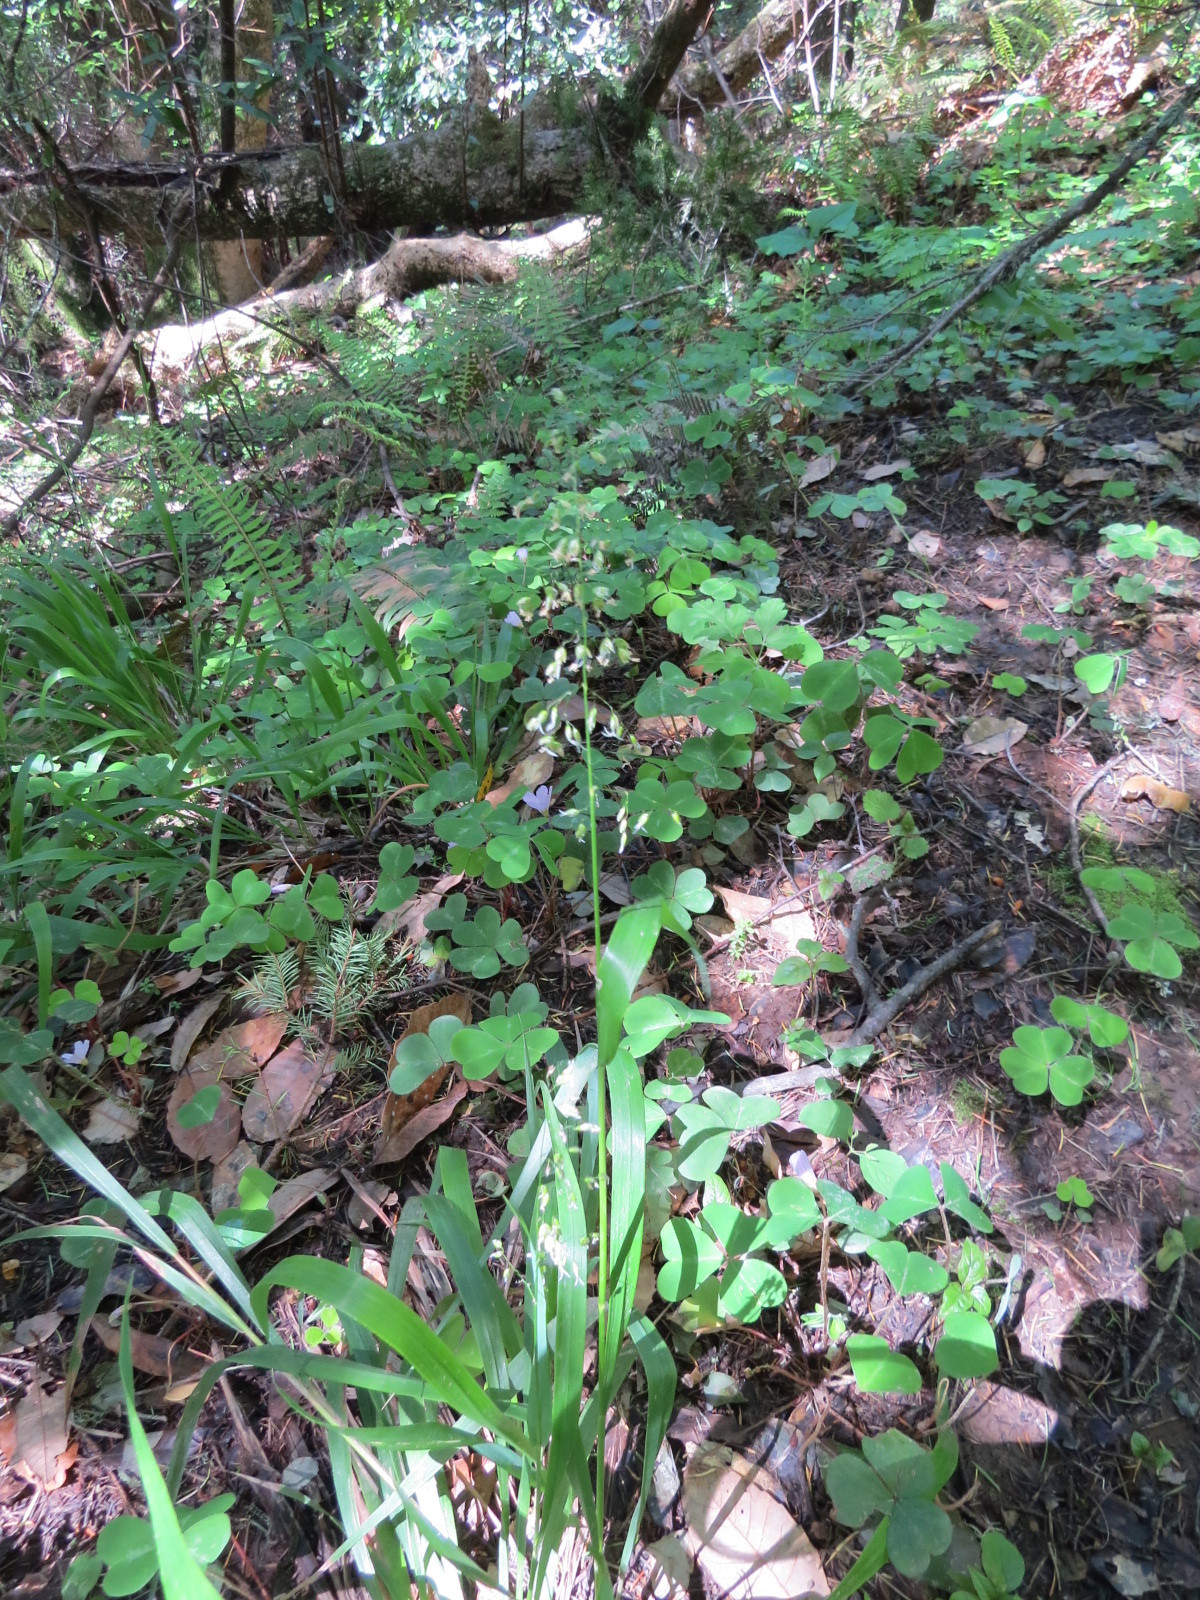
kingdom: Plantae
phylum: Tracheophyta
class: Liliopsida
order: Poales
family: Poaceae
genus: Anthoxanthum
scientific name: Anthoxanthum occidentale
